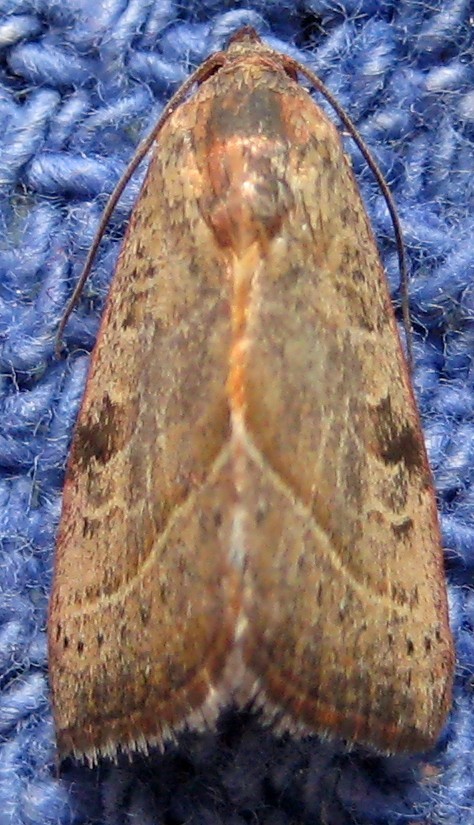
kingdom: Animalia
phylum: Arthropoda
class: Insecta
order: Lepidoptera
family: Noctuidae
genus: Galgula
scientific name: Galgula partita
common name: Wedgeling
